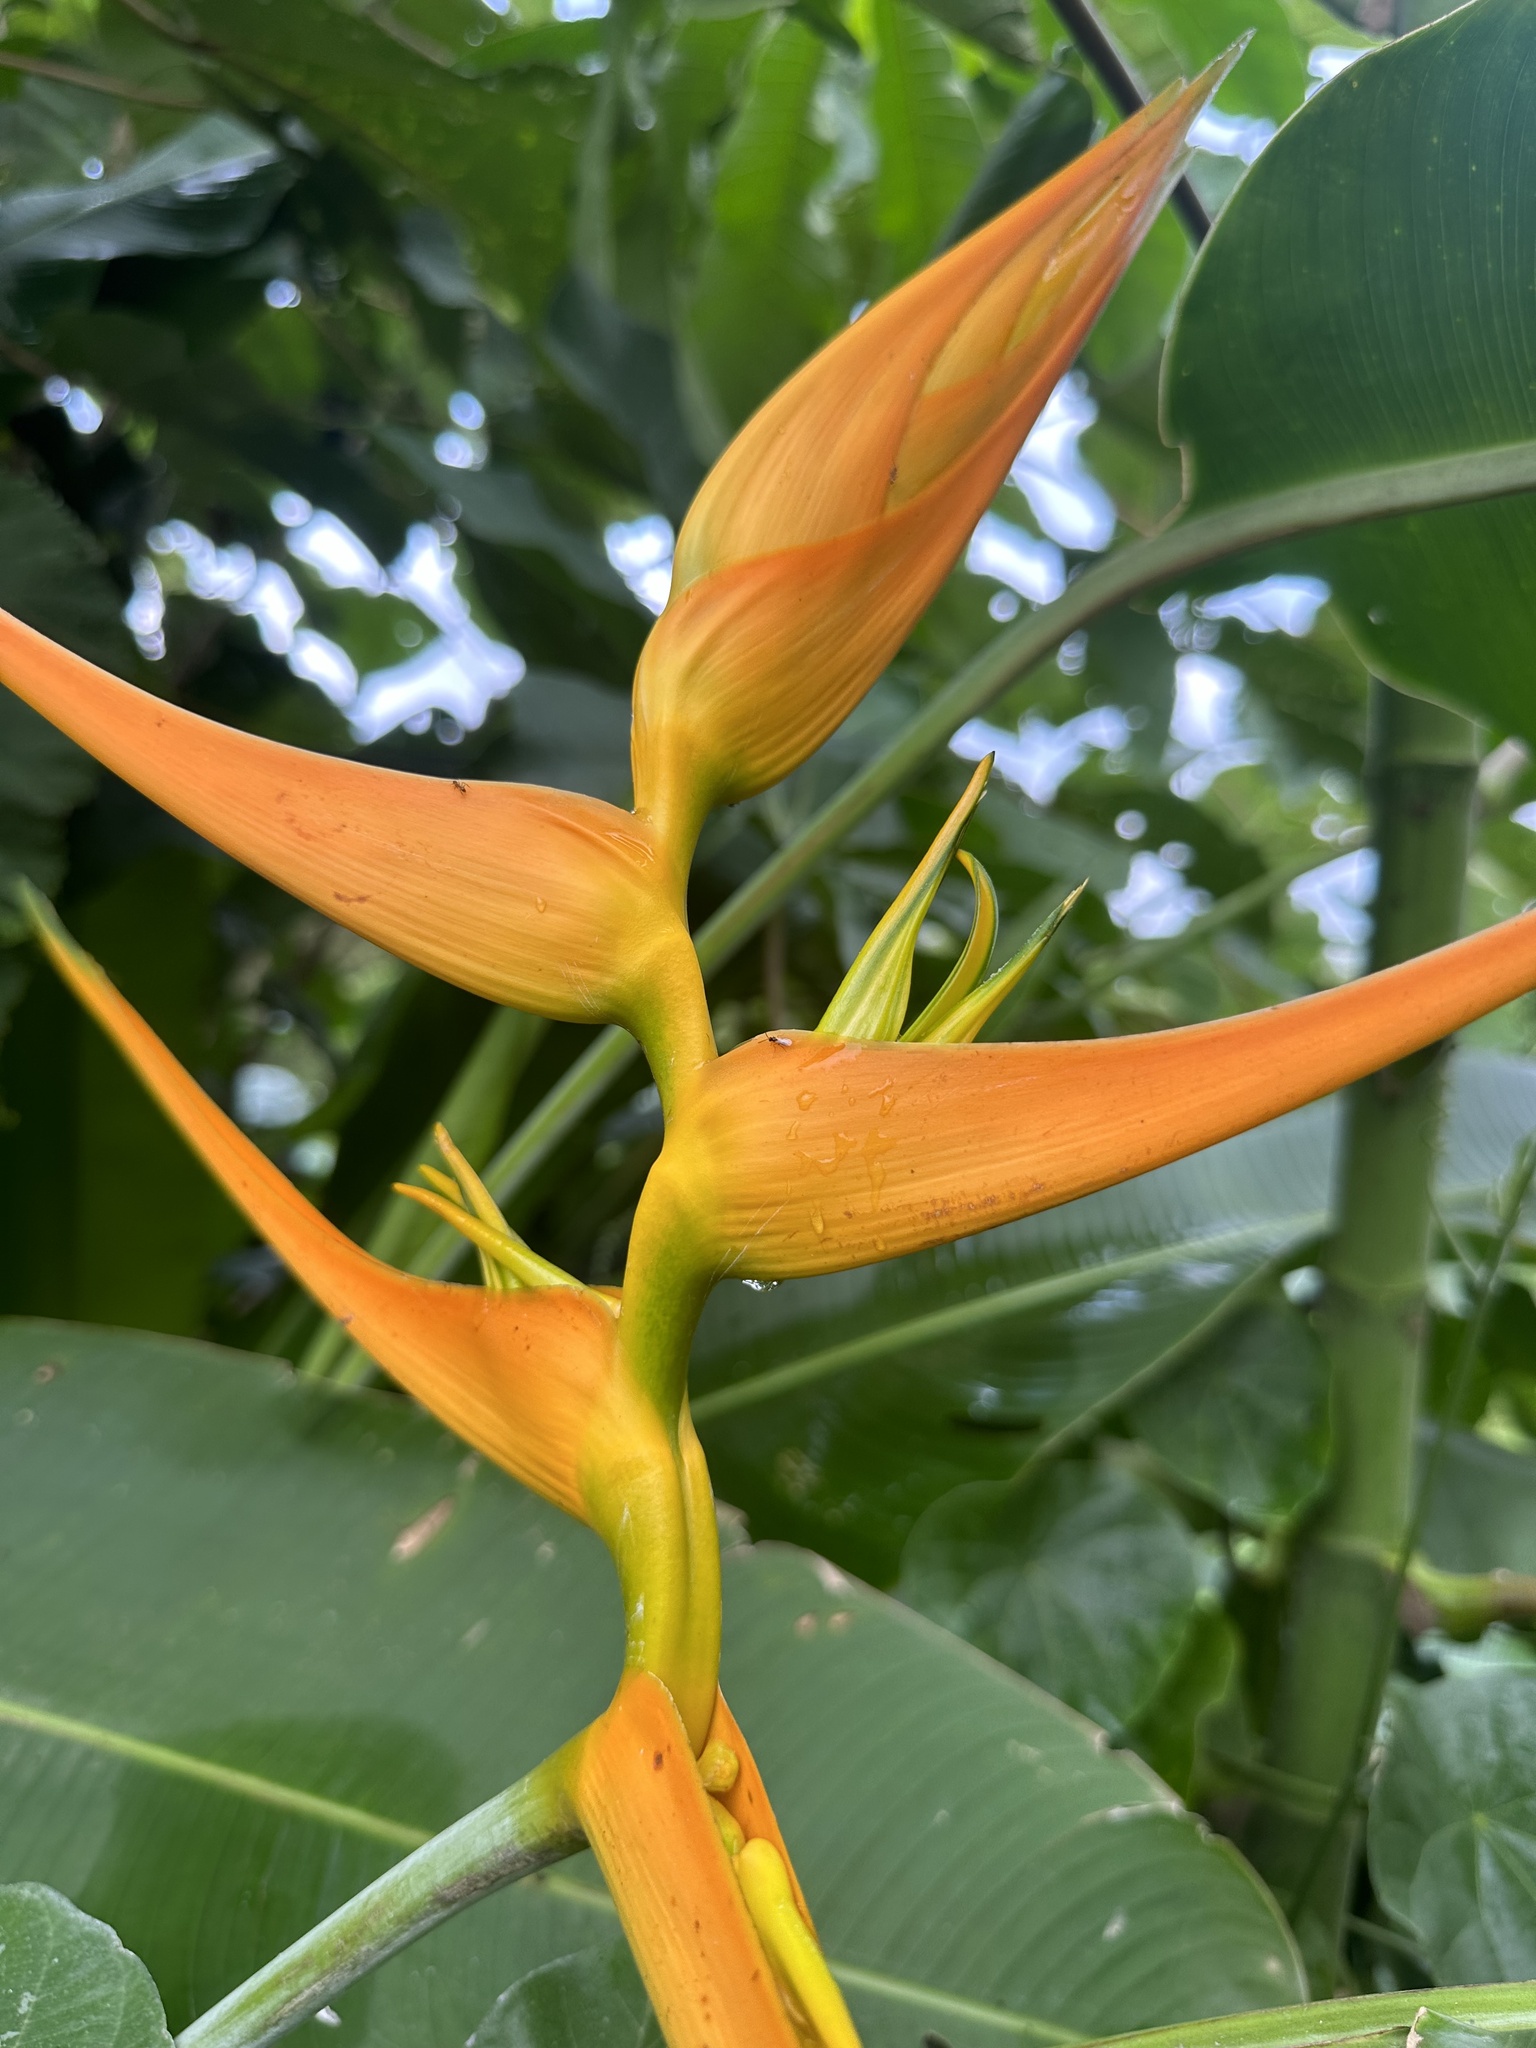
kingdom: Plantae
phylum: Tracheophyta
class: Liliopsida
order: Zingiberales
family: Heliconiaceae
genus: Heliconia
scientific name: Heliconia latispatha
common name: Expanded lobsterclaw
